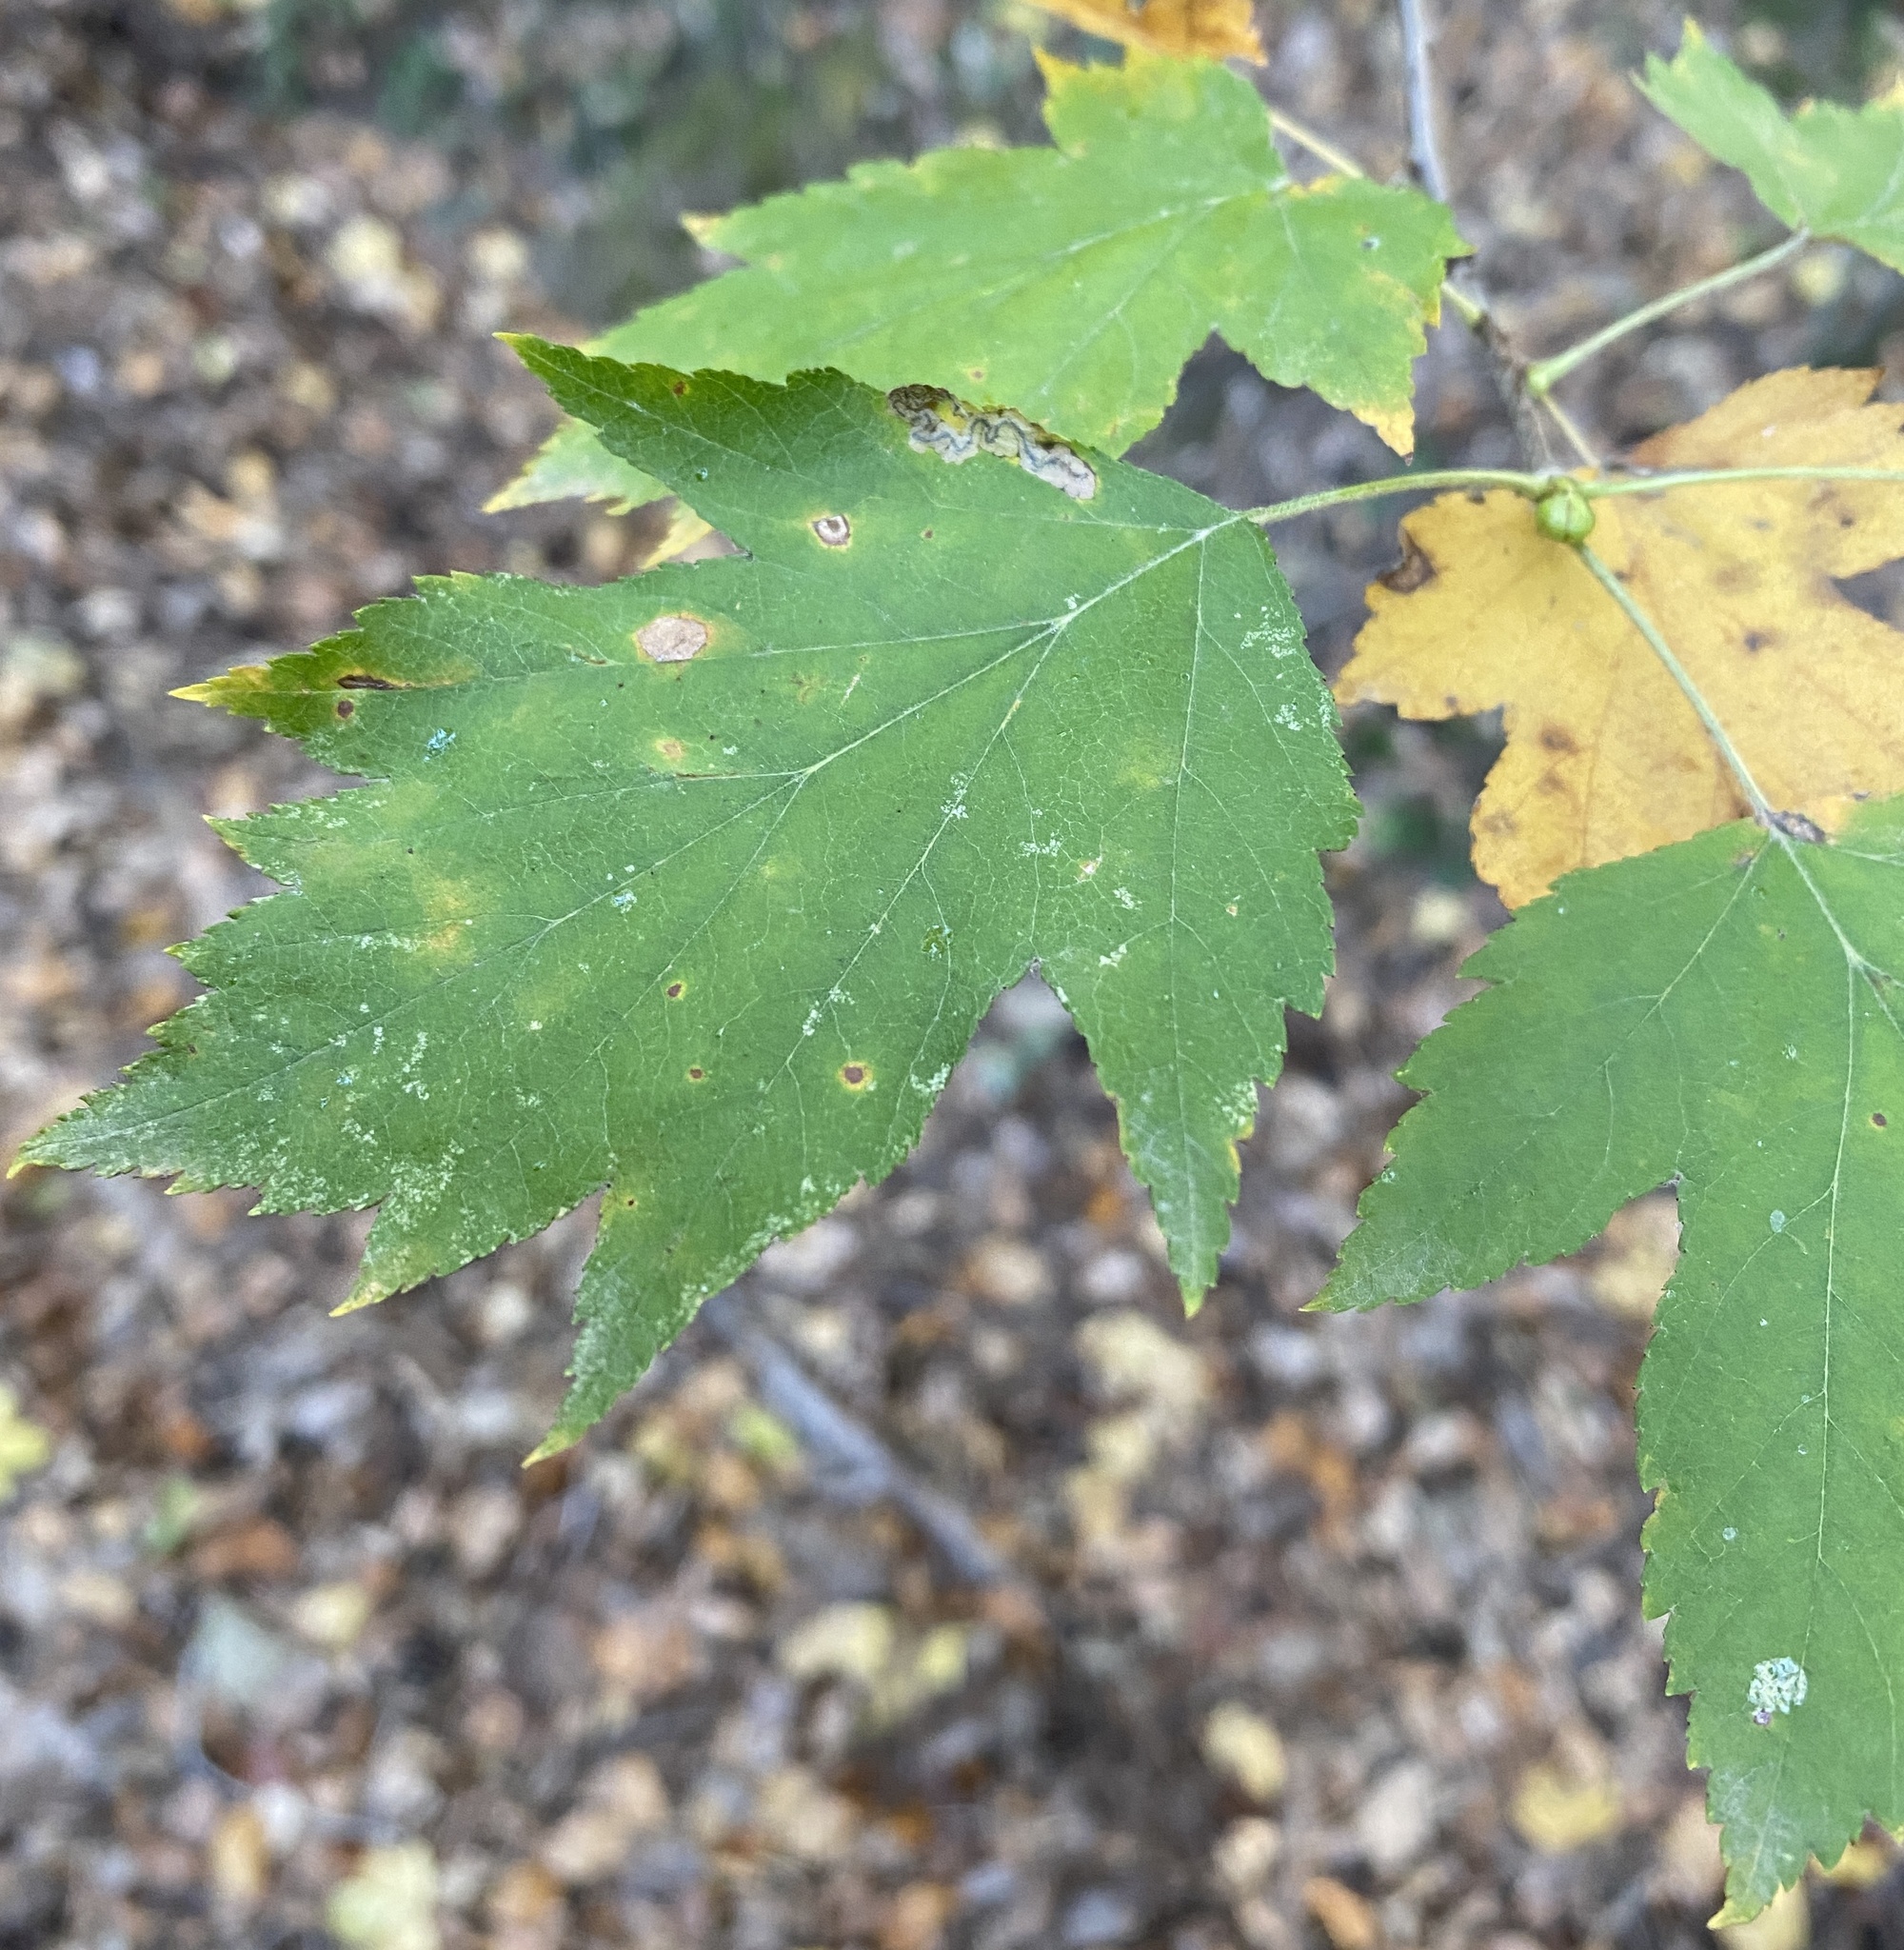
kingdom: Plantae
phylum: Tracheophyta
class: Magnoliopsida
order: Rosales
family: Rosaceae
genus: Torminalis
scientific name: Torminalis glaberrima
